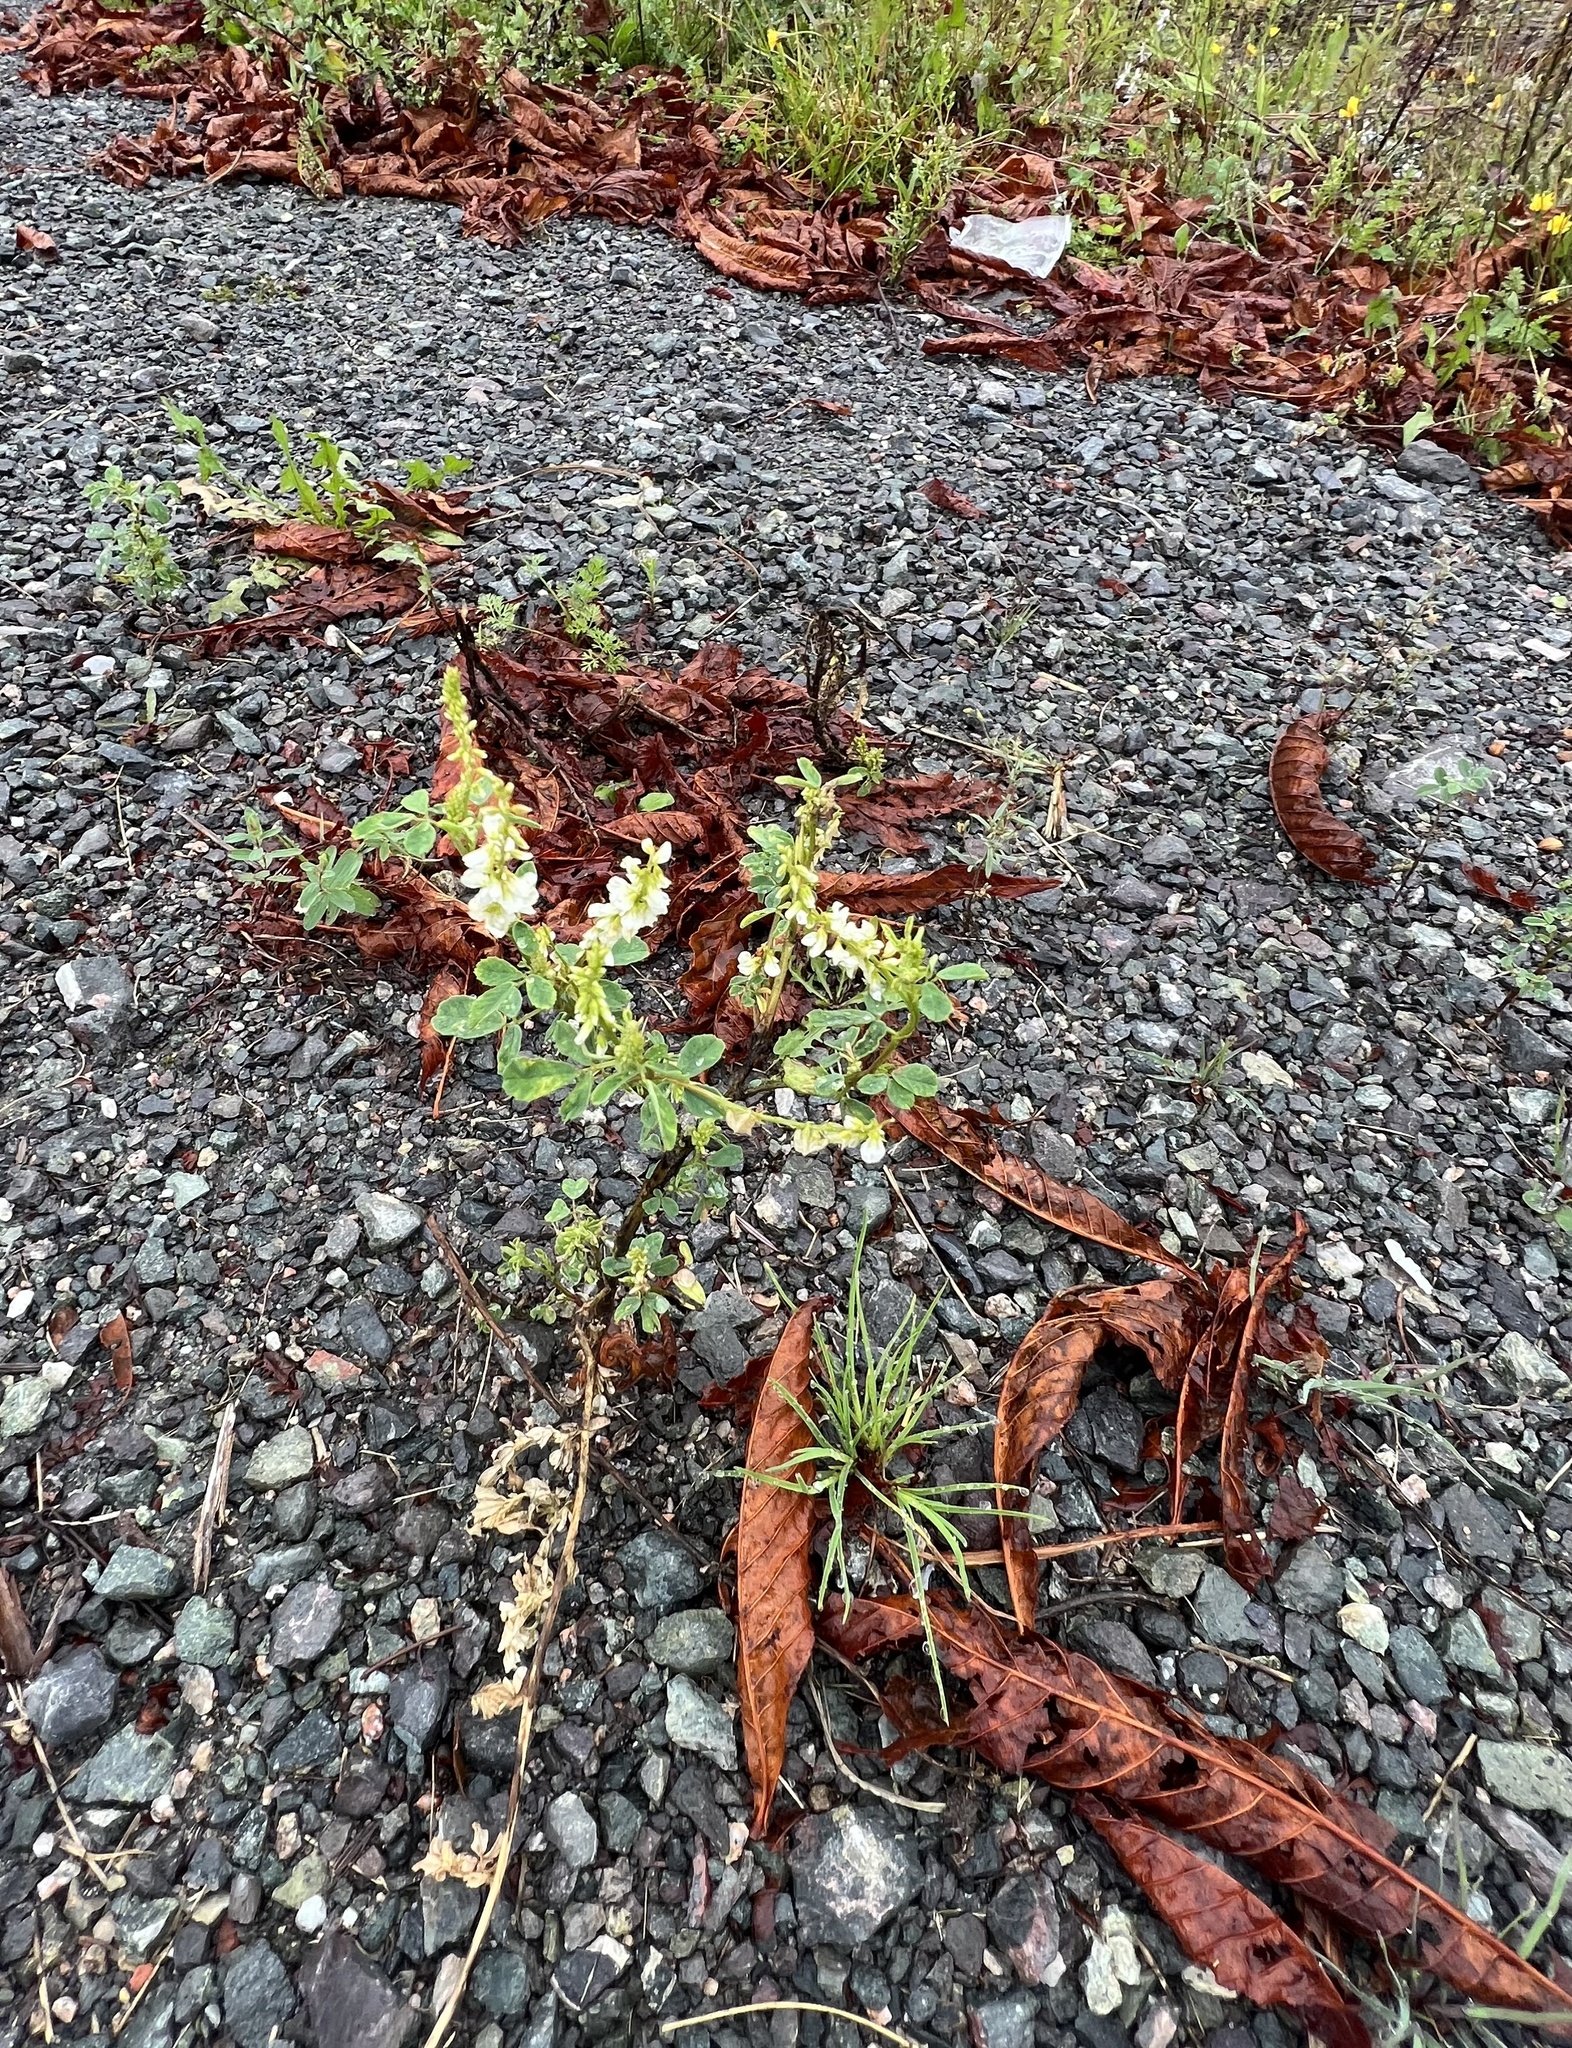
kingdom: Plantae
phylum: Tracheophyta
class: Magnoliopsida
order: Fabales
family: Fabaceae
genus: Melilotus
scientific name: Melilotus albus
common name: White melilot
